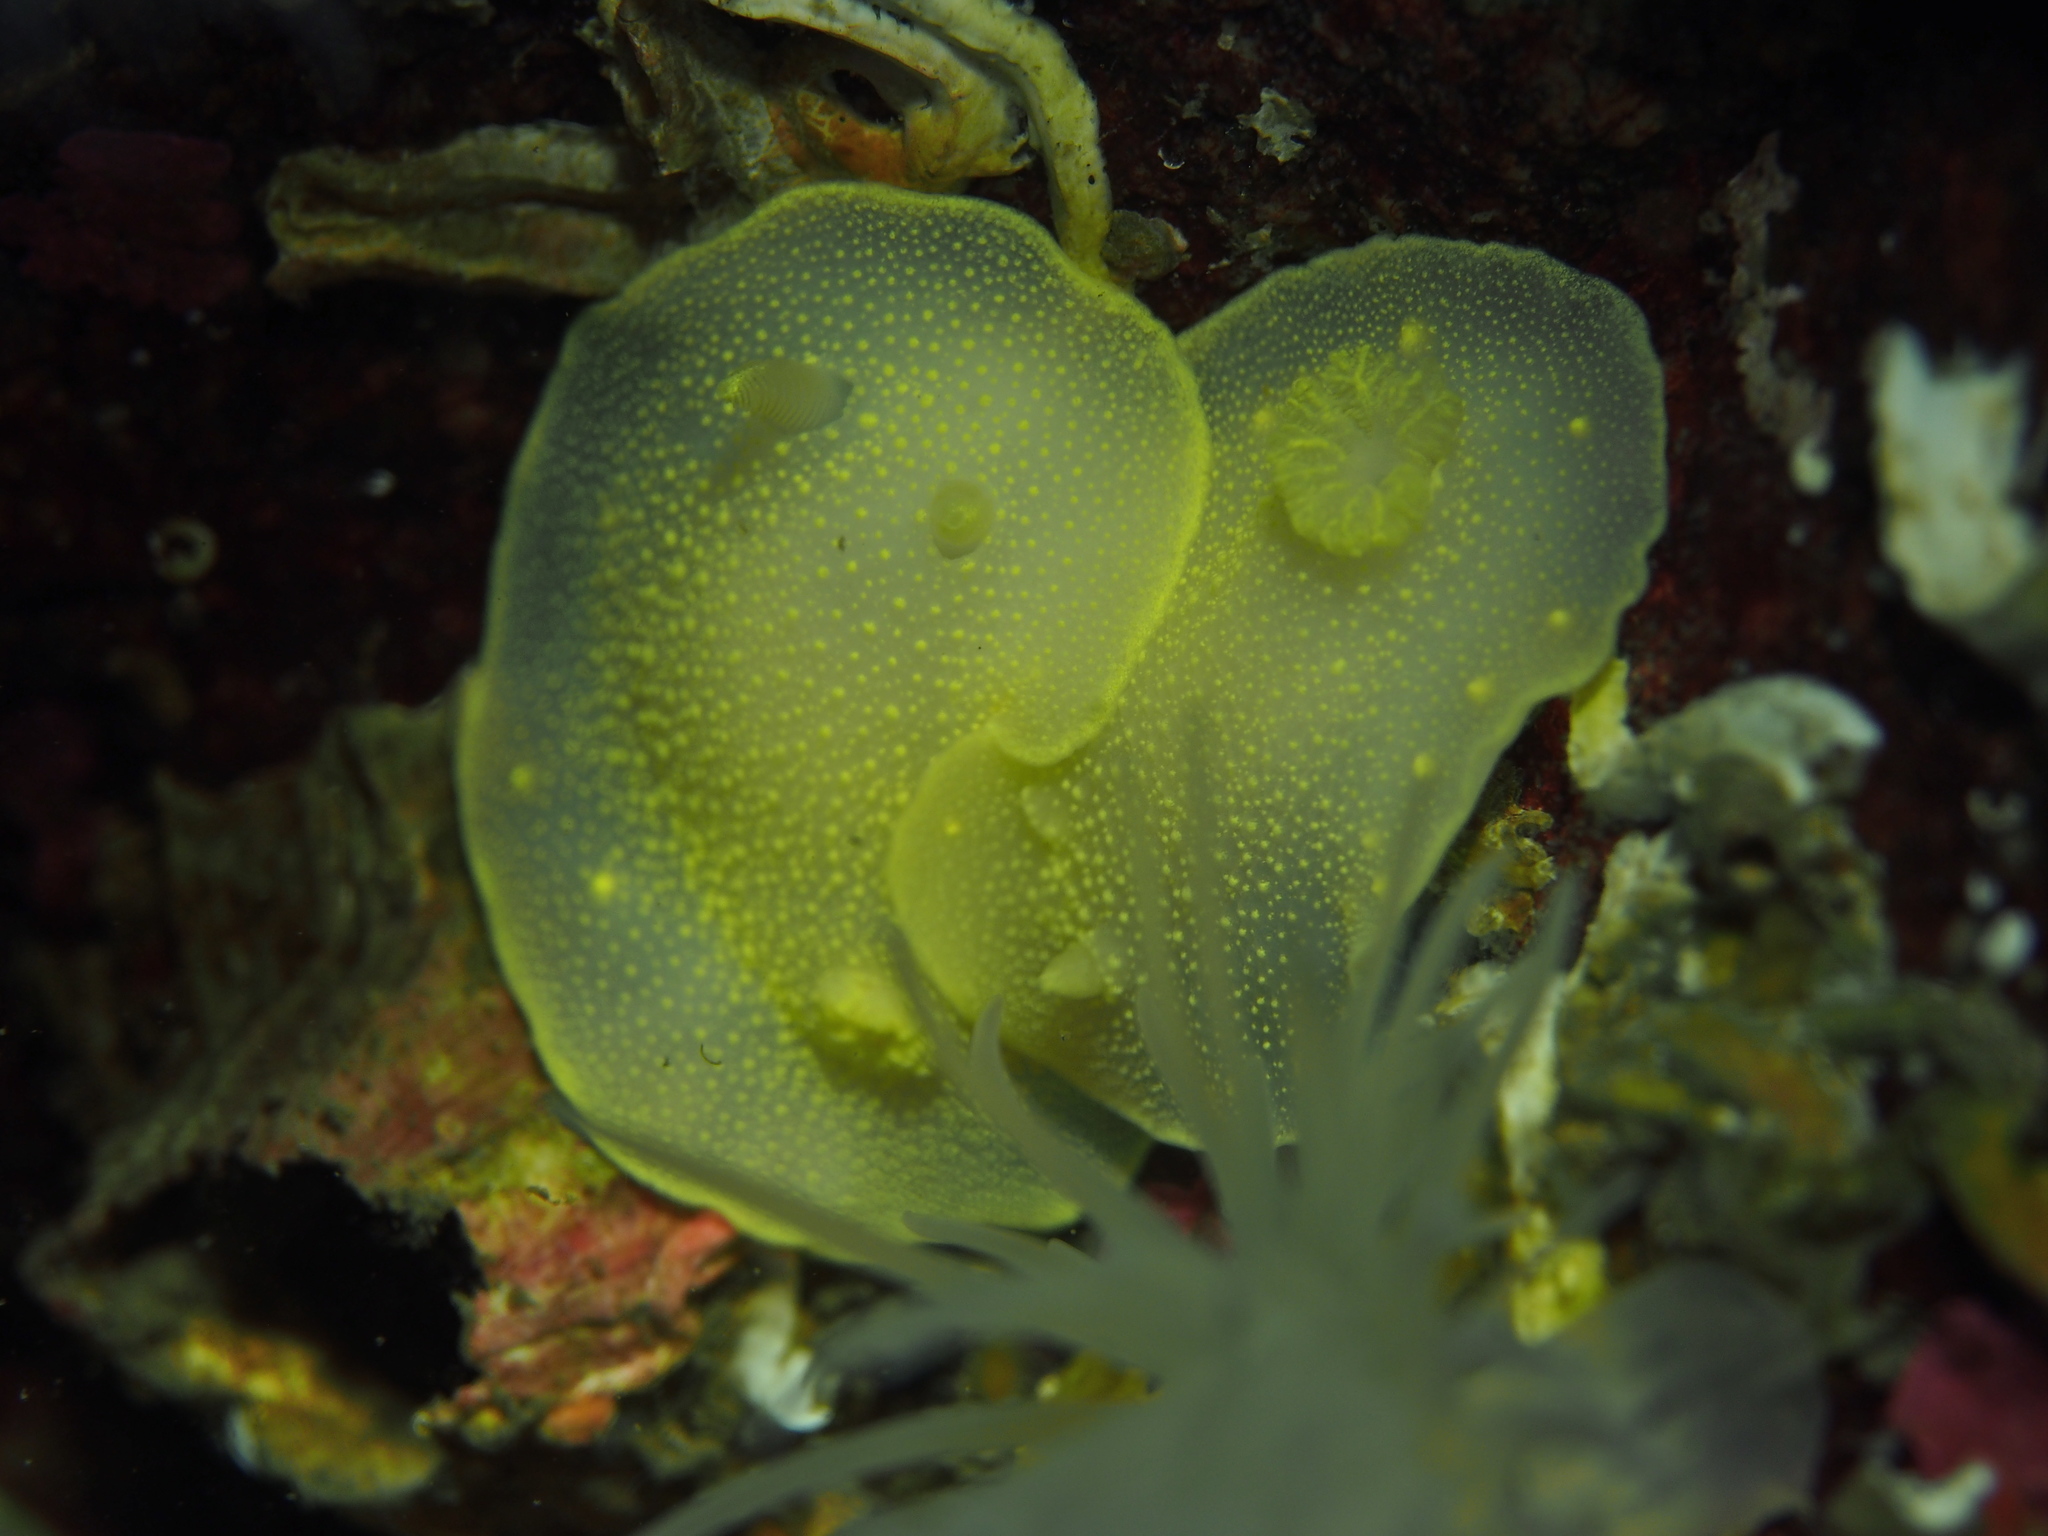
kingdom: Animalia
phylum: Mollusca
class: Gastropoda
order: Nudibranchia
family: Cadlinidae
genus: Cadlina
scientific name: Cadlina laevis
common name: White atlantic cadlina
